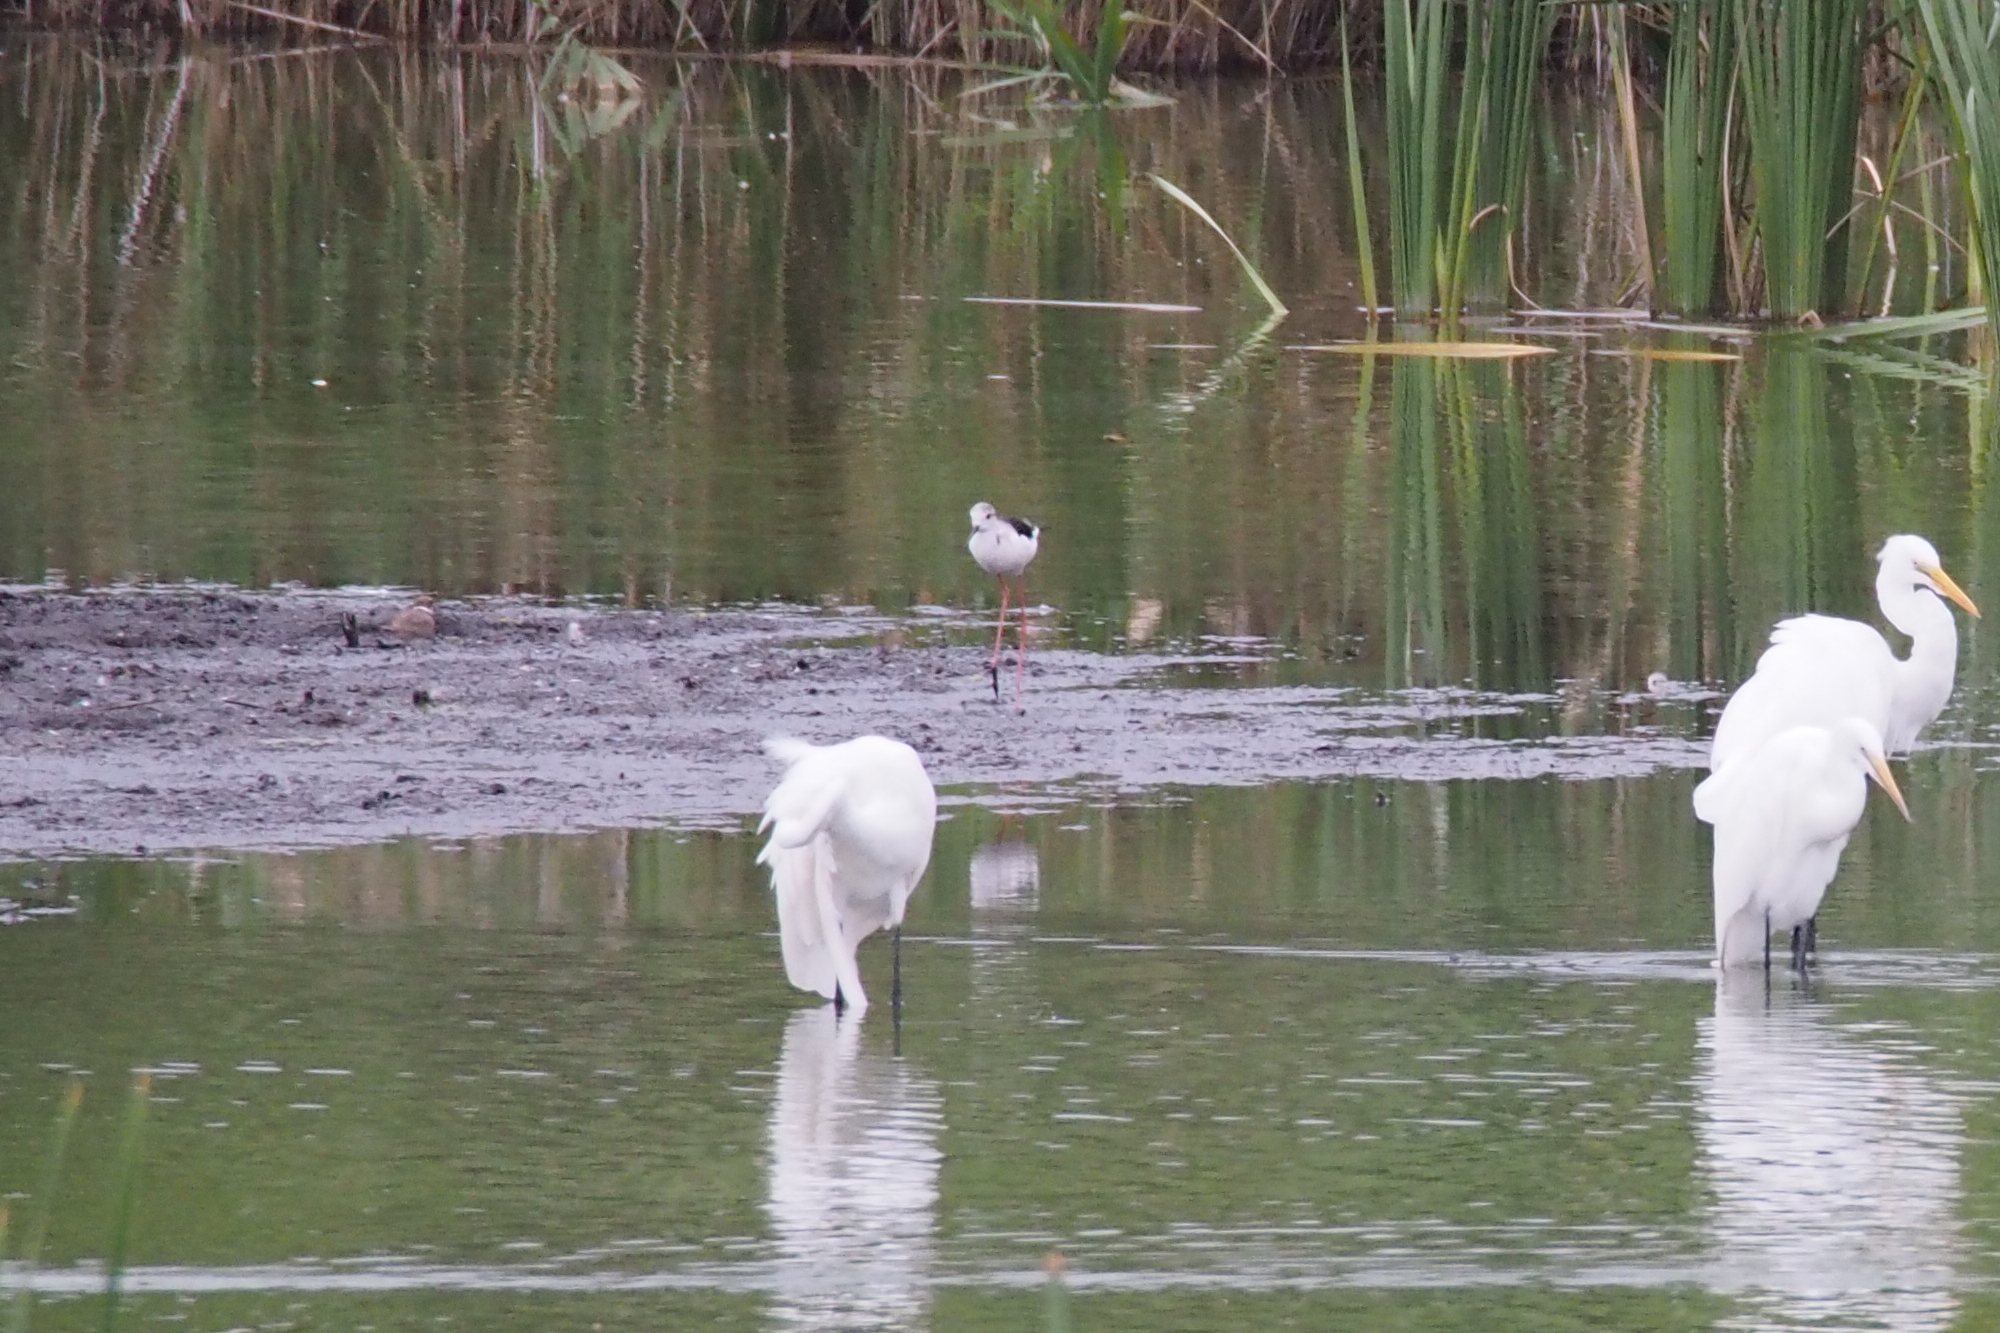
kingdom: Animalia
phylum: Chordata
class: Aves
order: Charadriiformes
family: Recurvirostridae
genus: Himantopus
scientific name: Himantopus himantopus
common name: Black-winged stilt
